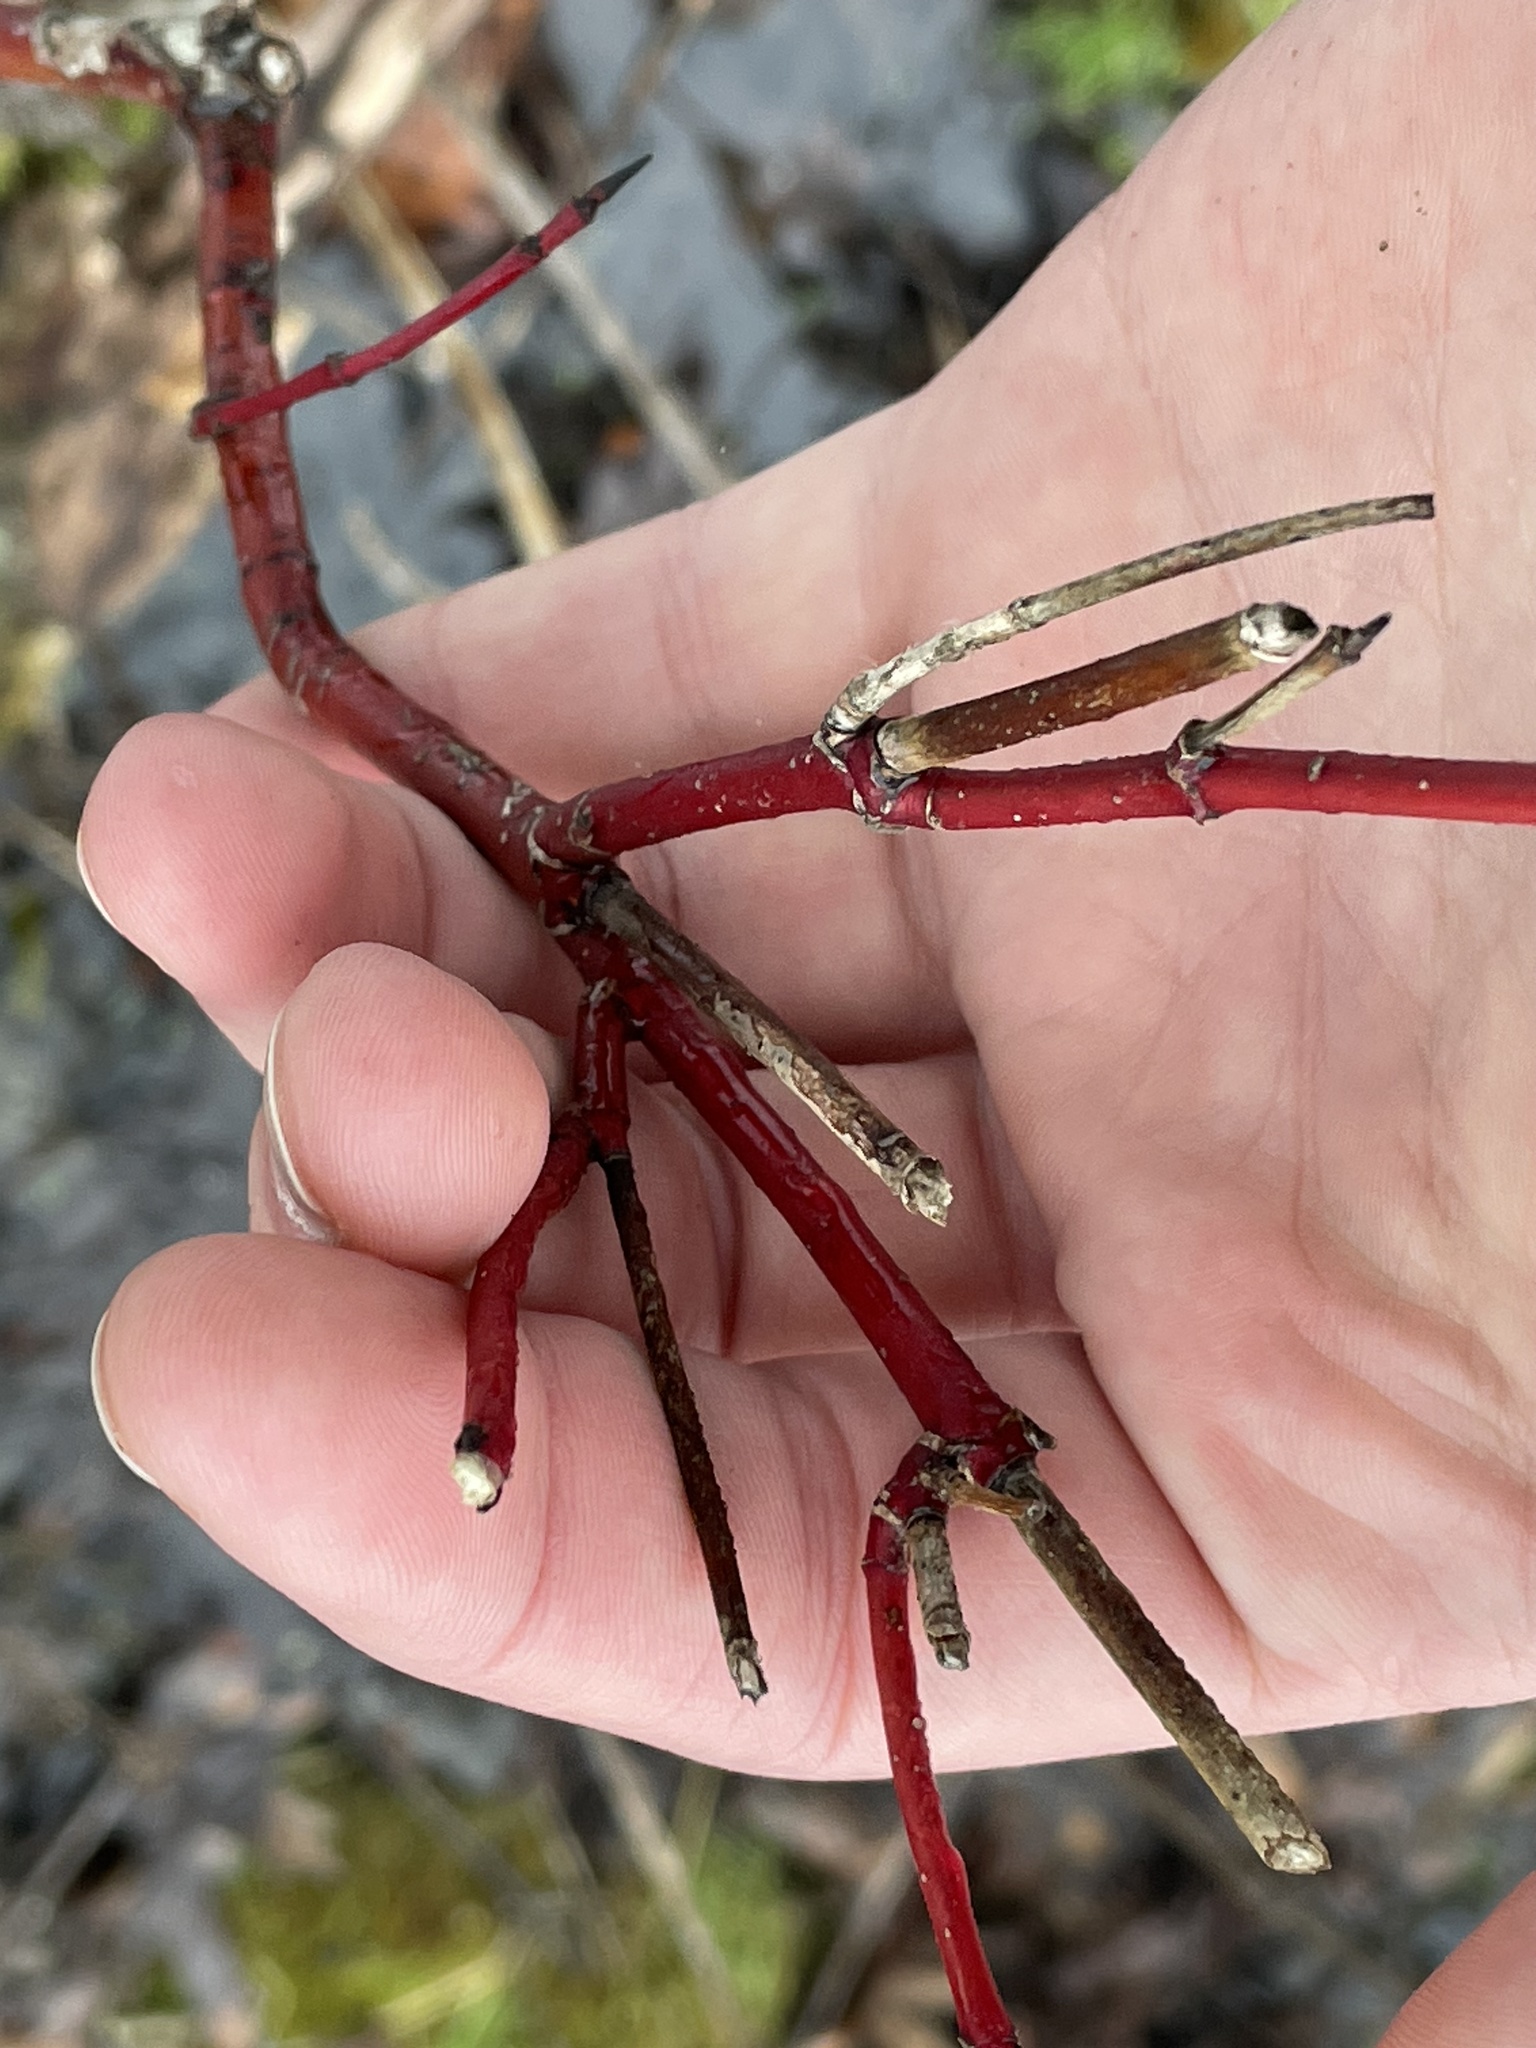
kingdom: Plantae
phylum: Tracheophyta
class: Magnoliopsida
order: Cornales
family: Cornaceae
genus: Cornus
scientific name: Cornus sericea
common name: Red-osier dogwood
